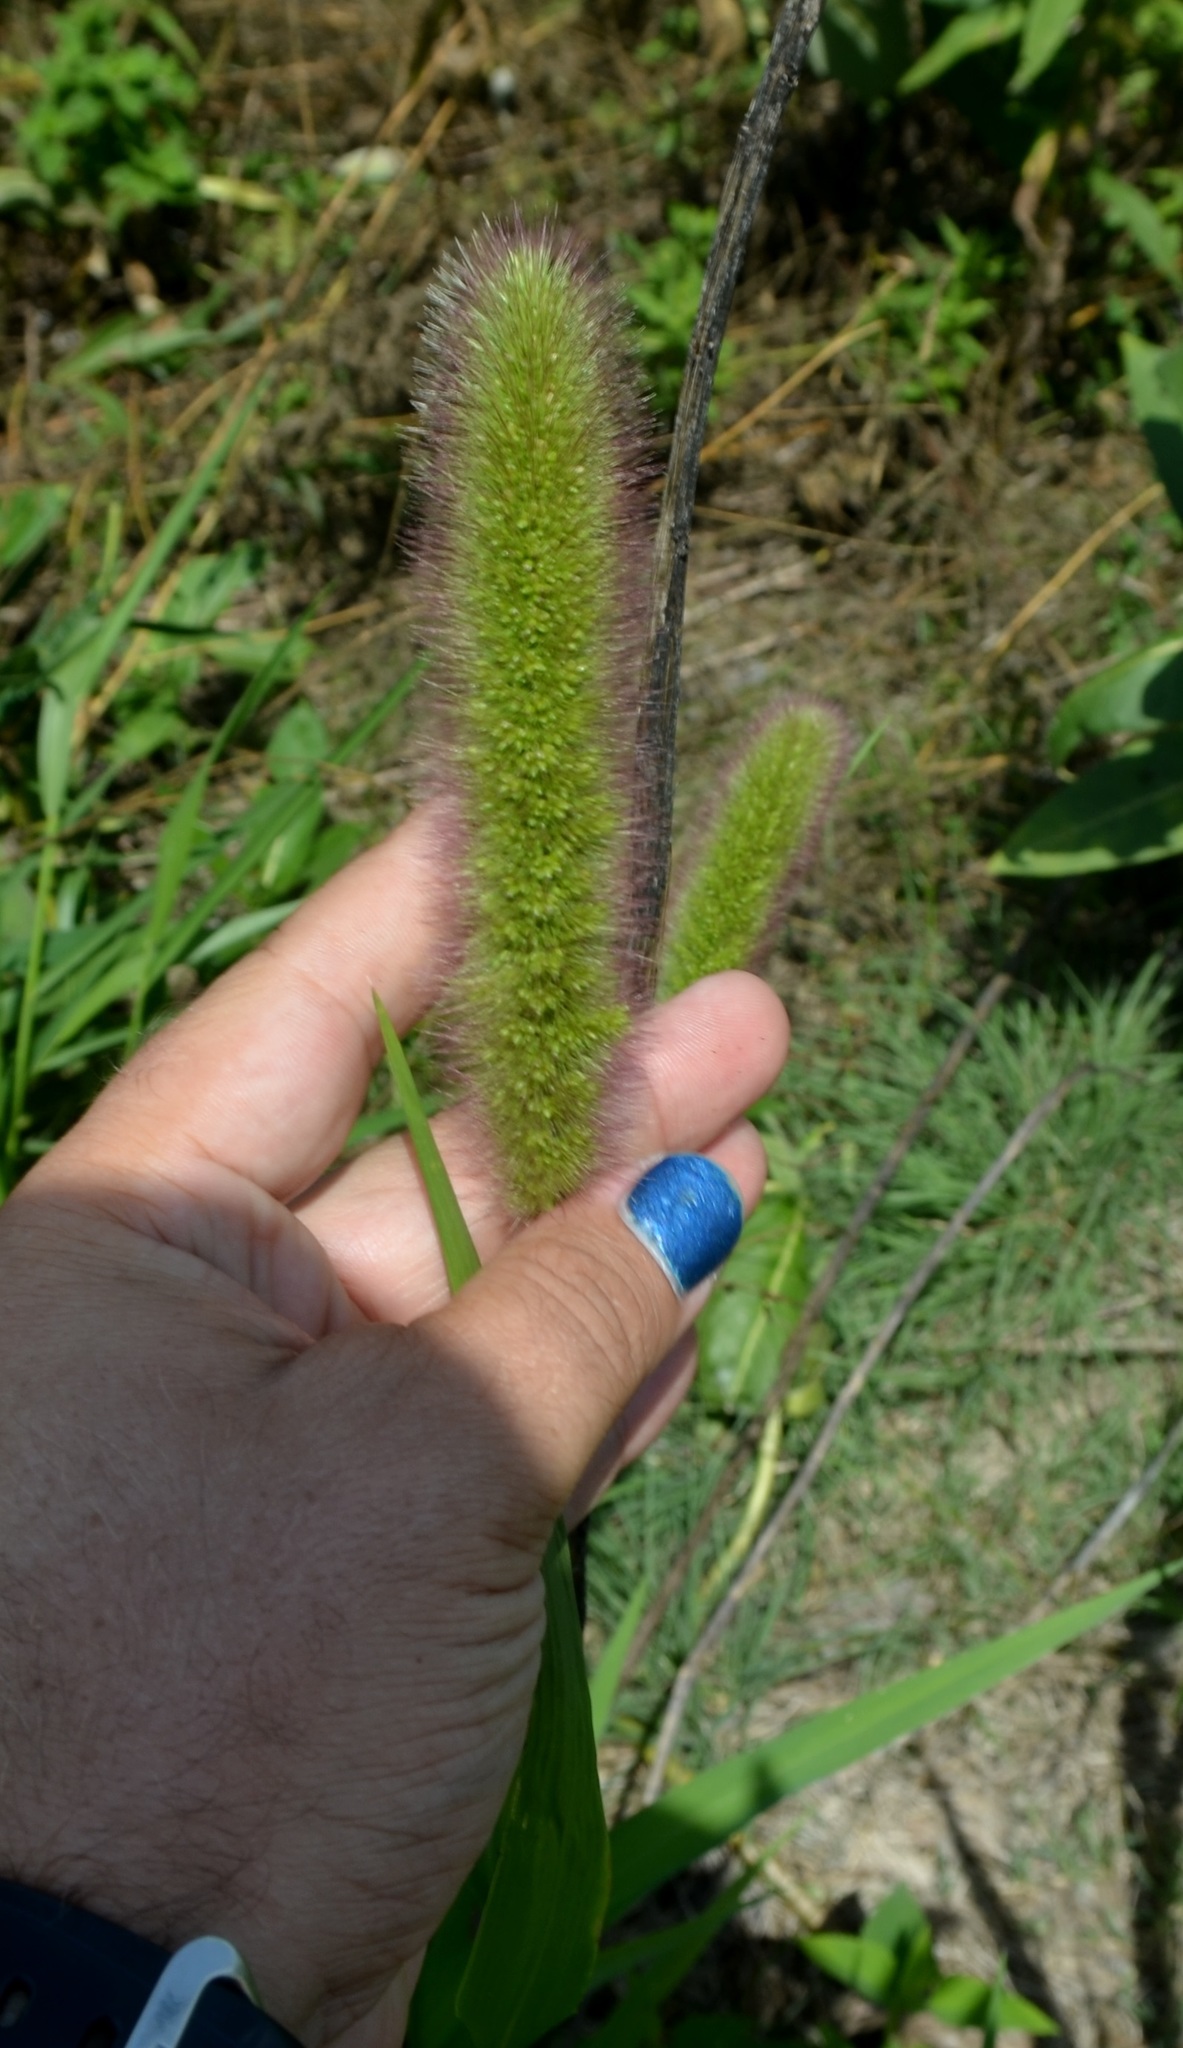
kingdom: Plantae
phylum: Tracheophyta
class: Liliopsida
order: Poales
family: Poaceae
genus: Setaria
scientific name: Setaria italica
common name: Foxtail bristle-grass
